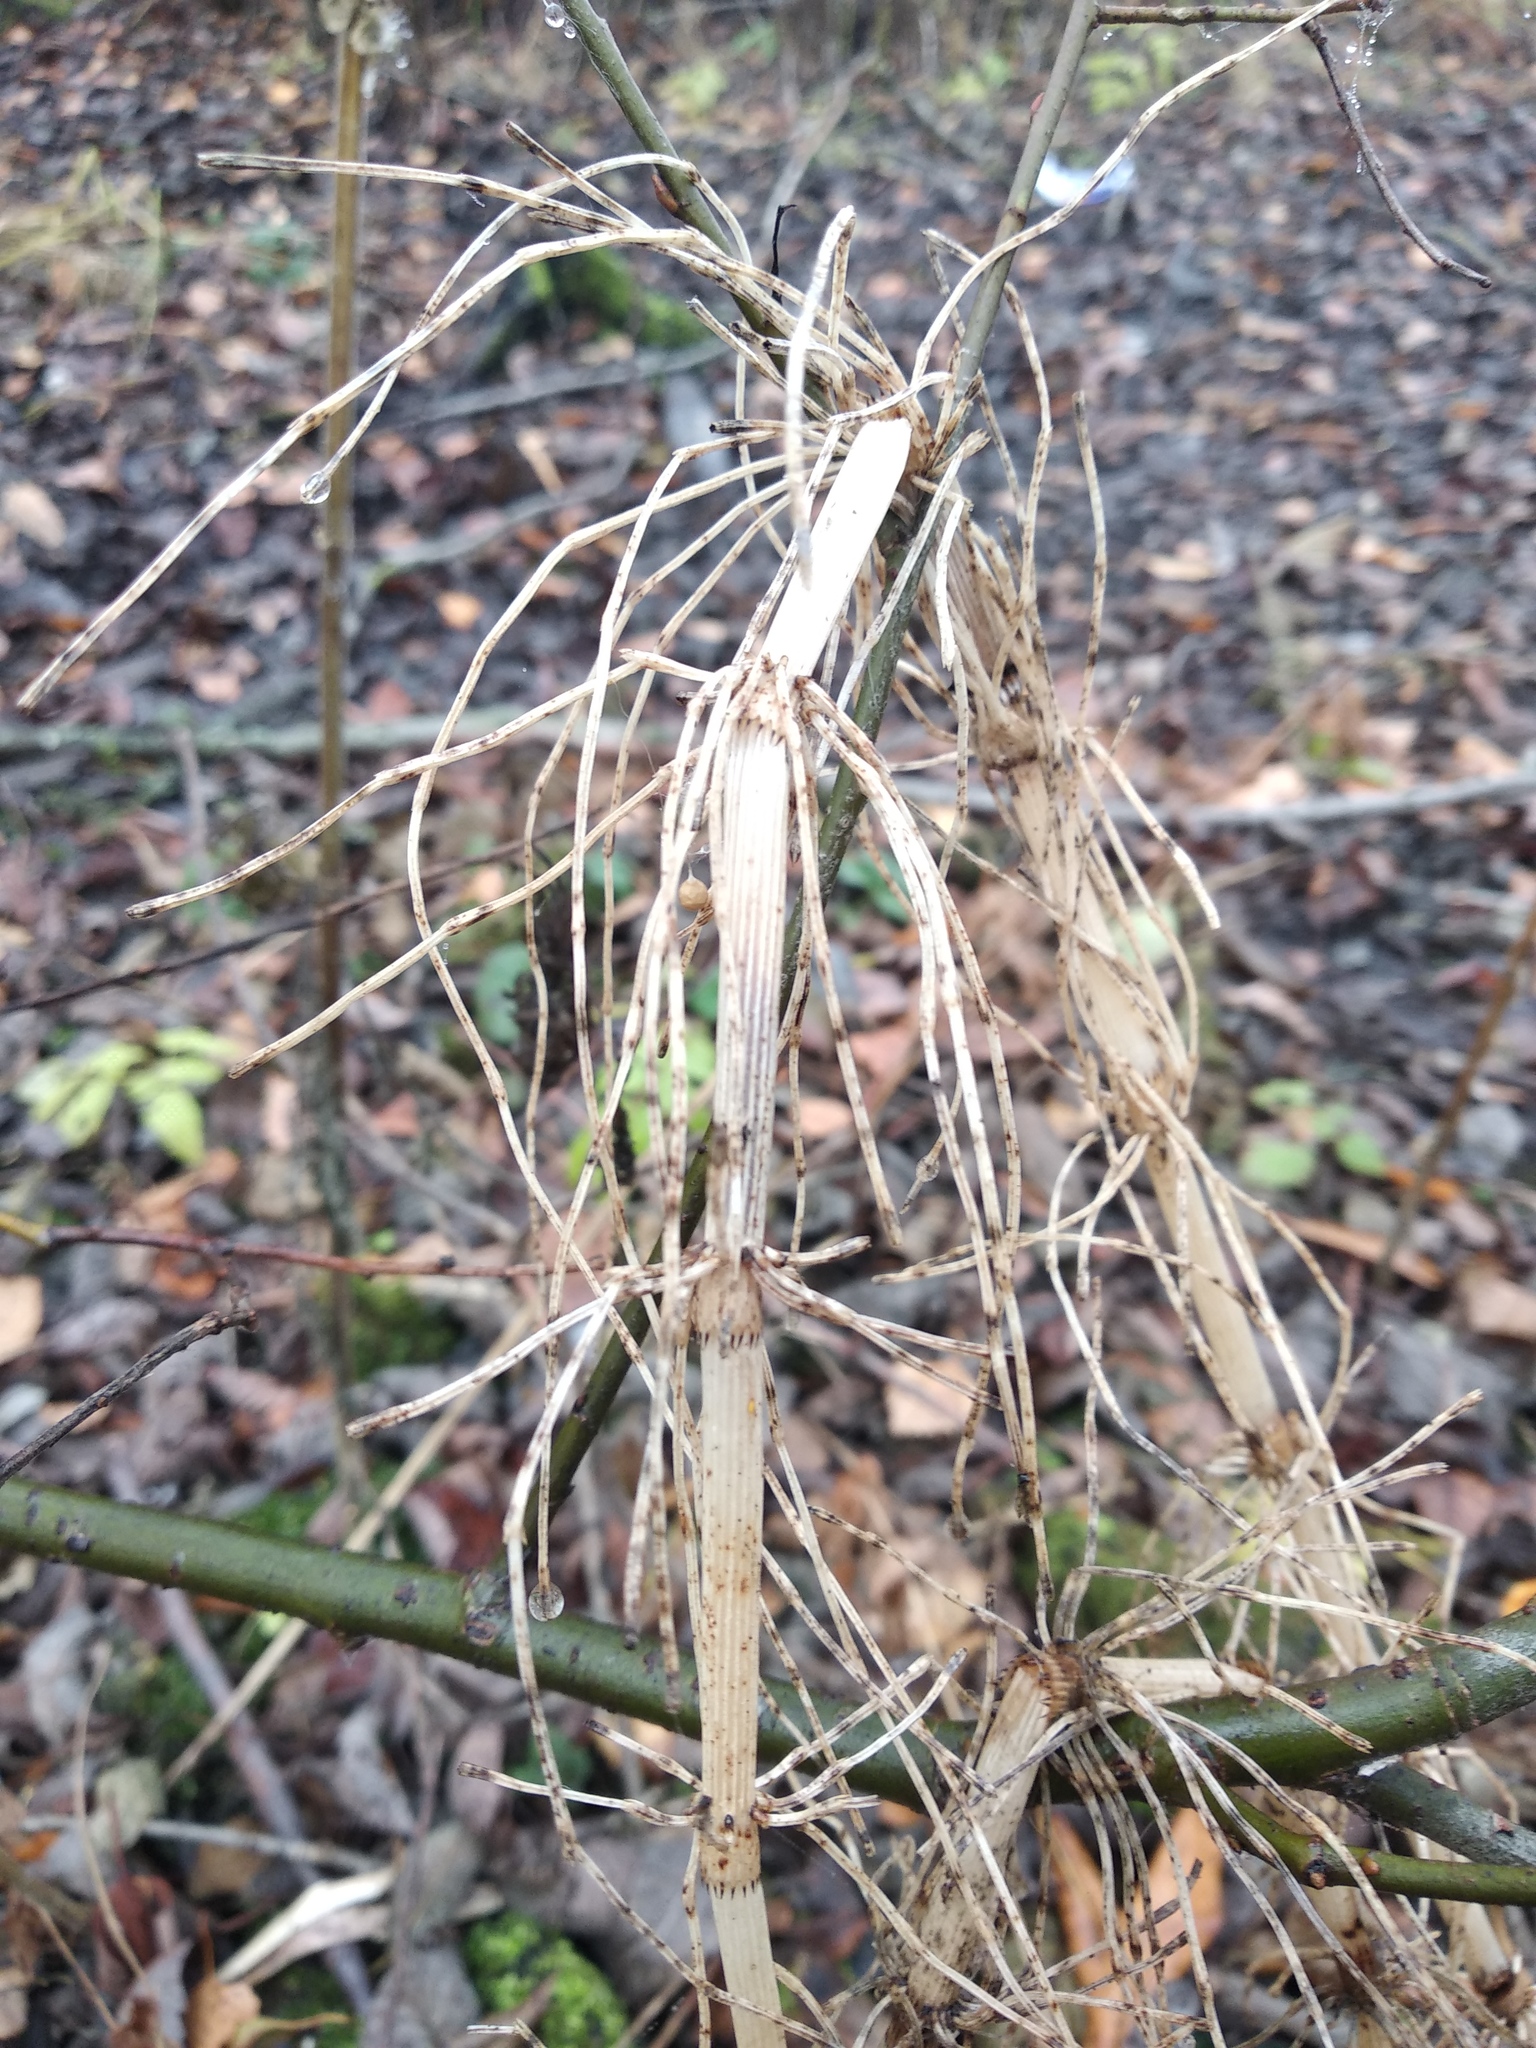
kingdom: Plantae
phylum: Tracheophyta
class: Polypodiopsida
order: Equisetales
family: Equisetaceae
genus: Equisetum
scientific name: Equisetum fluviatile
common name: Water horsetail
